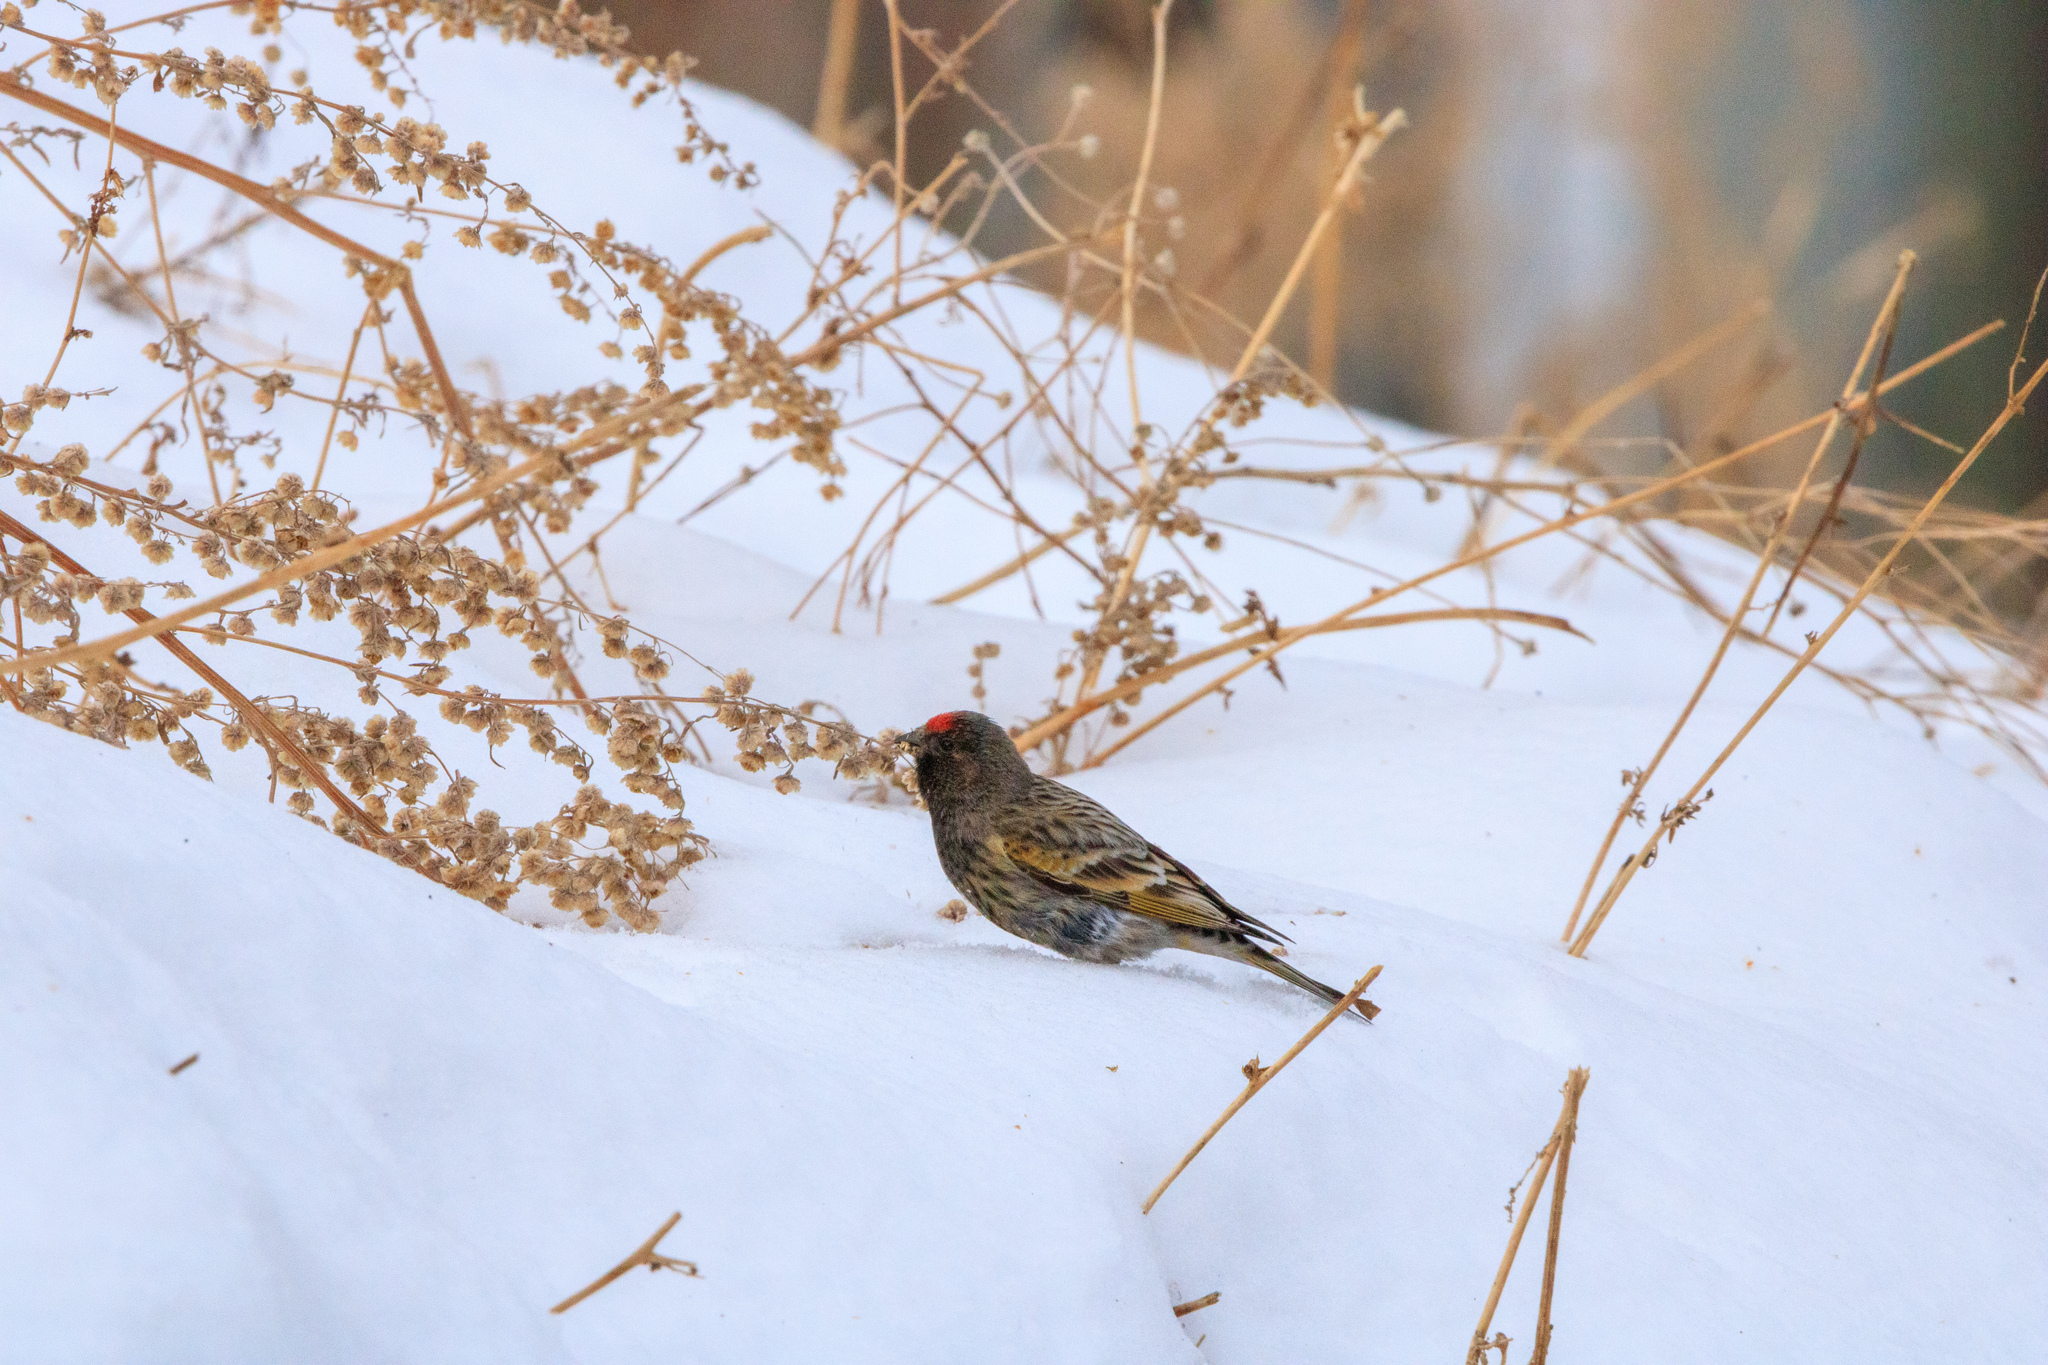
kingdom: Animalia
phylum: Chordata
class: Aves
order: Passeriformes
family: Fringillidae
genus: Serinus
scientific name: Serinus pusillus
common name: Red-fronted serin
